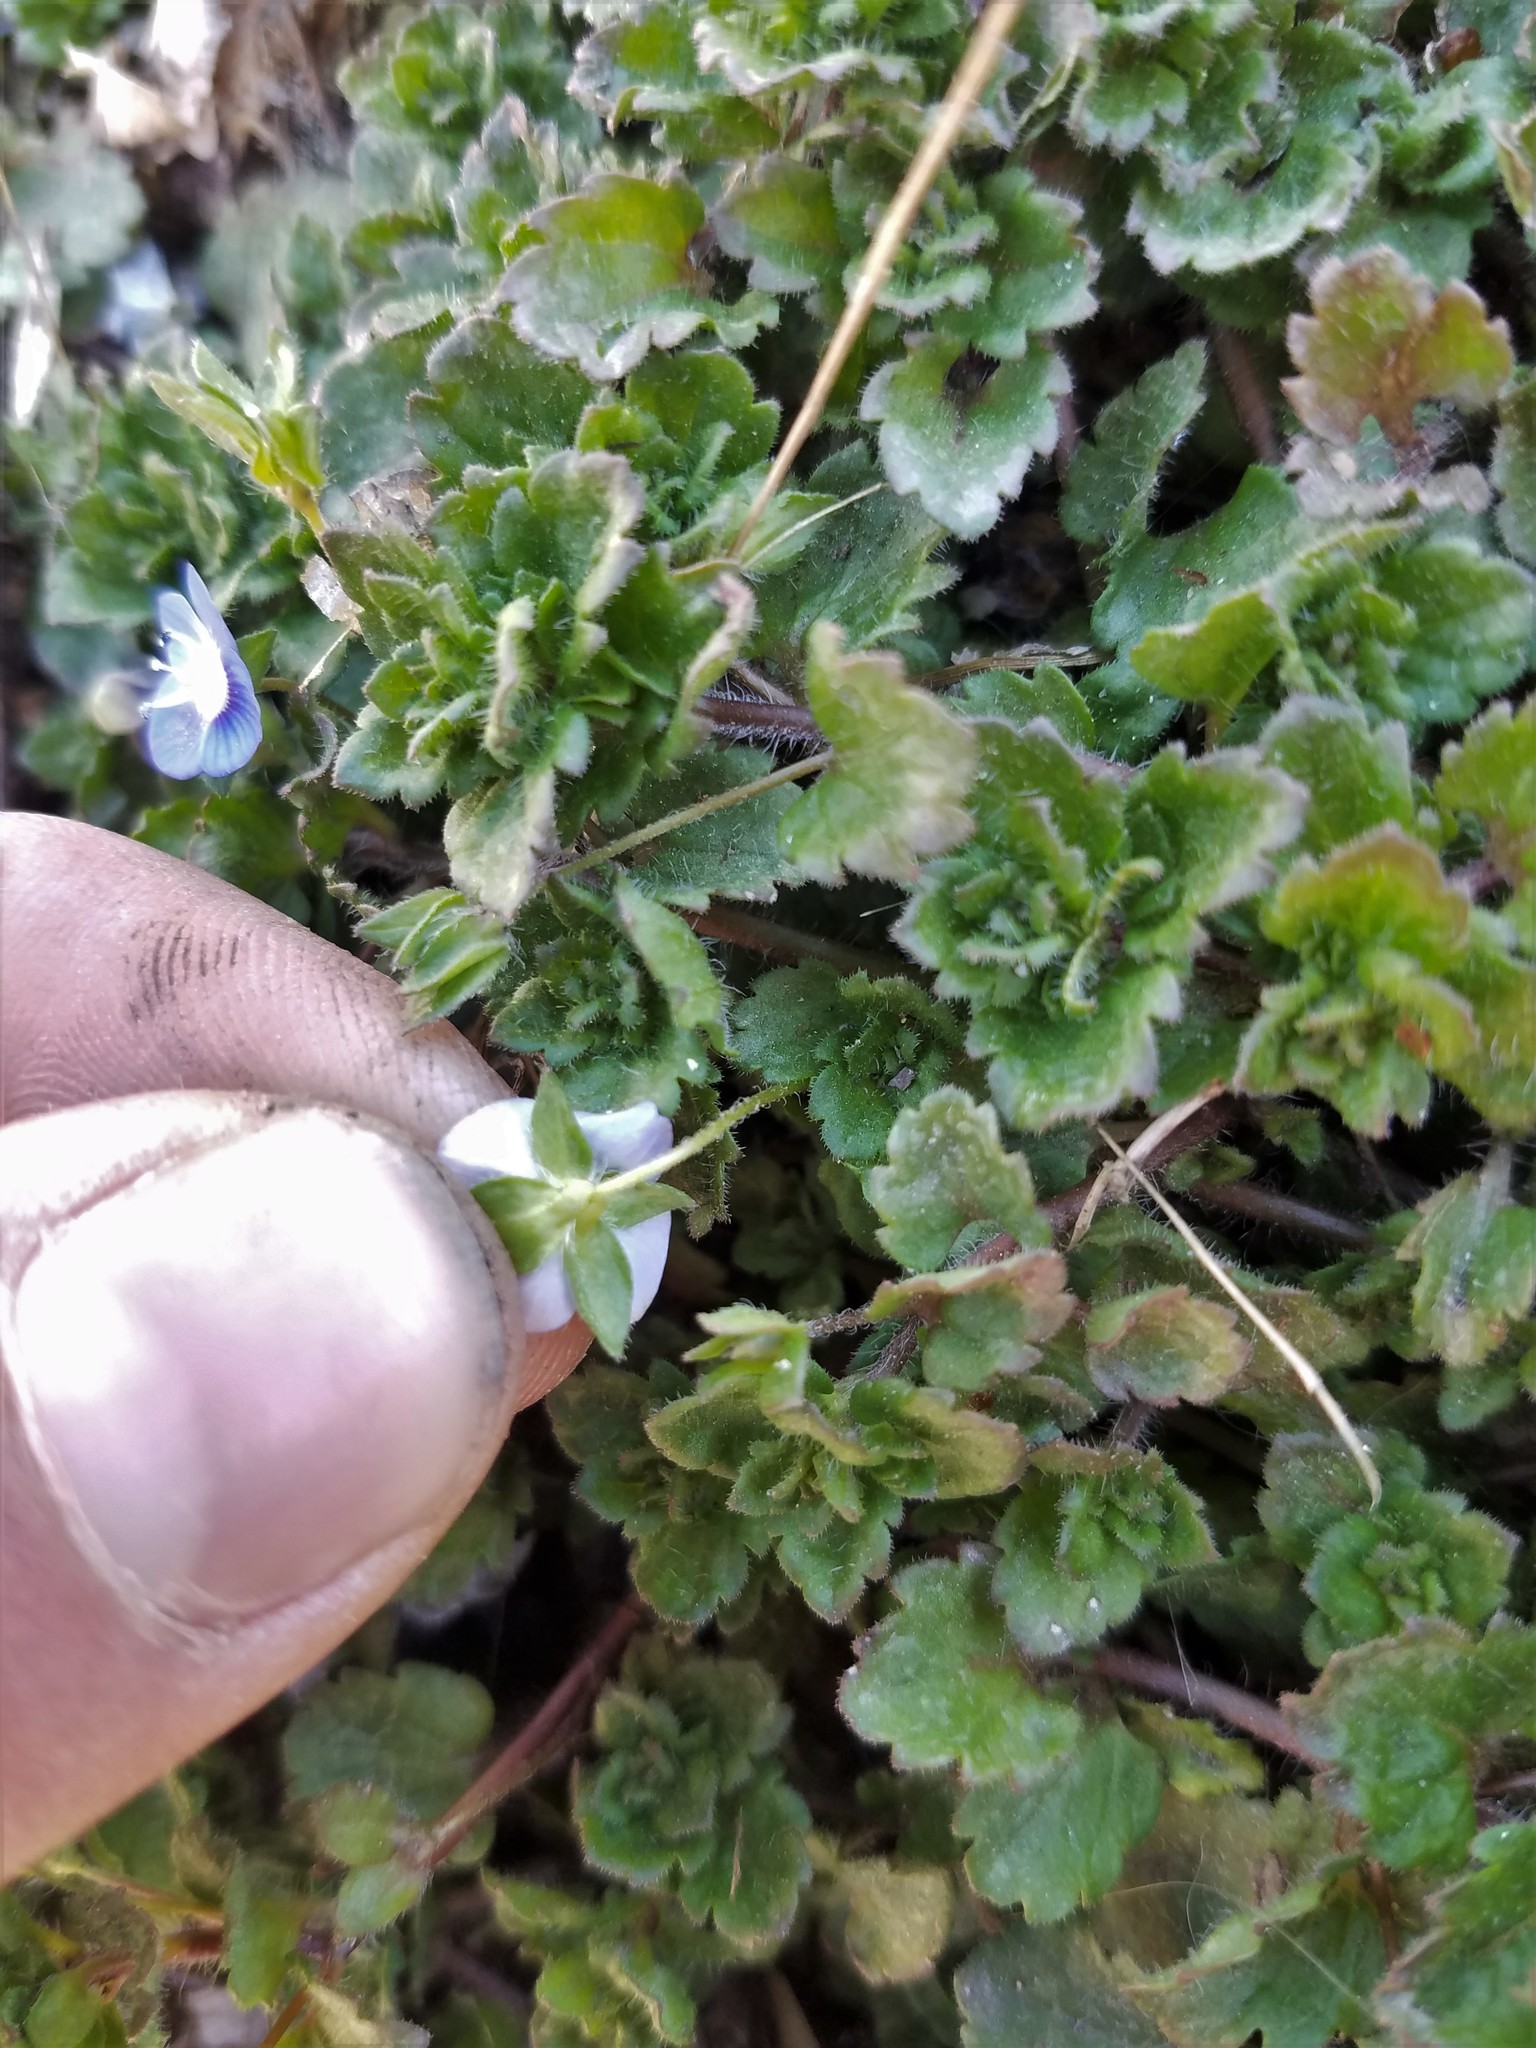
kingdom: Plantae
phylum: Tracheophyta
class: Magnoliopsida
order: Lamiales
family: Plantaginaceae
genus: Veronica
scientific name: Veronica persica
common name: Common field-speedwell
